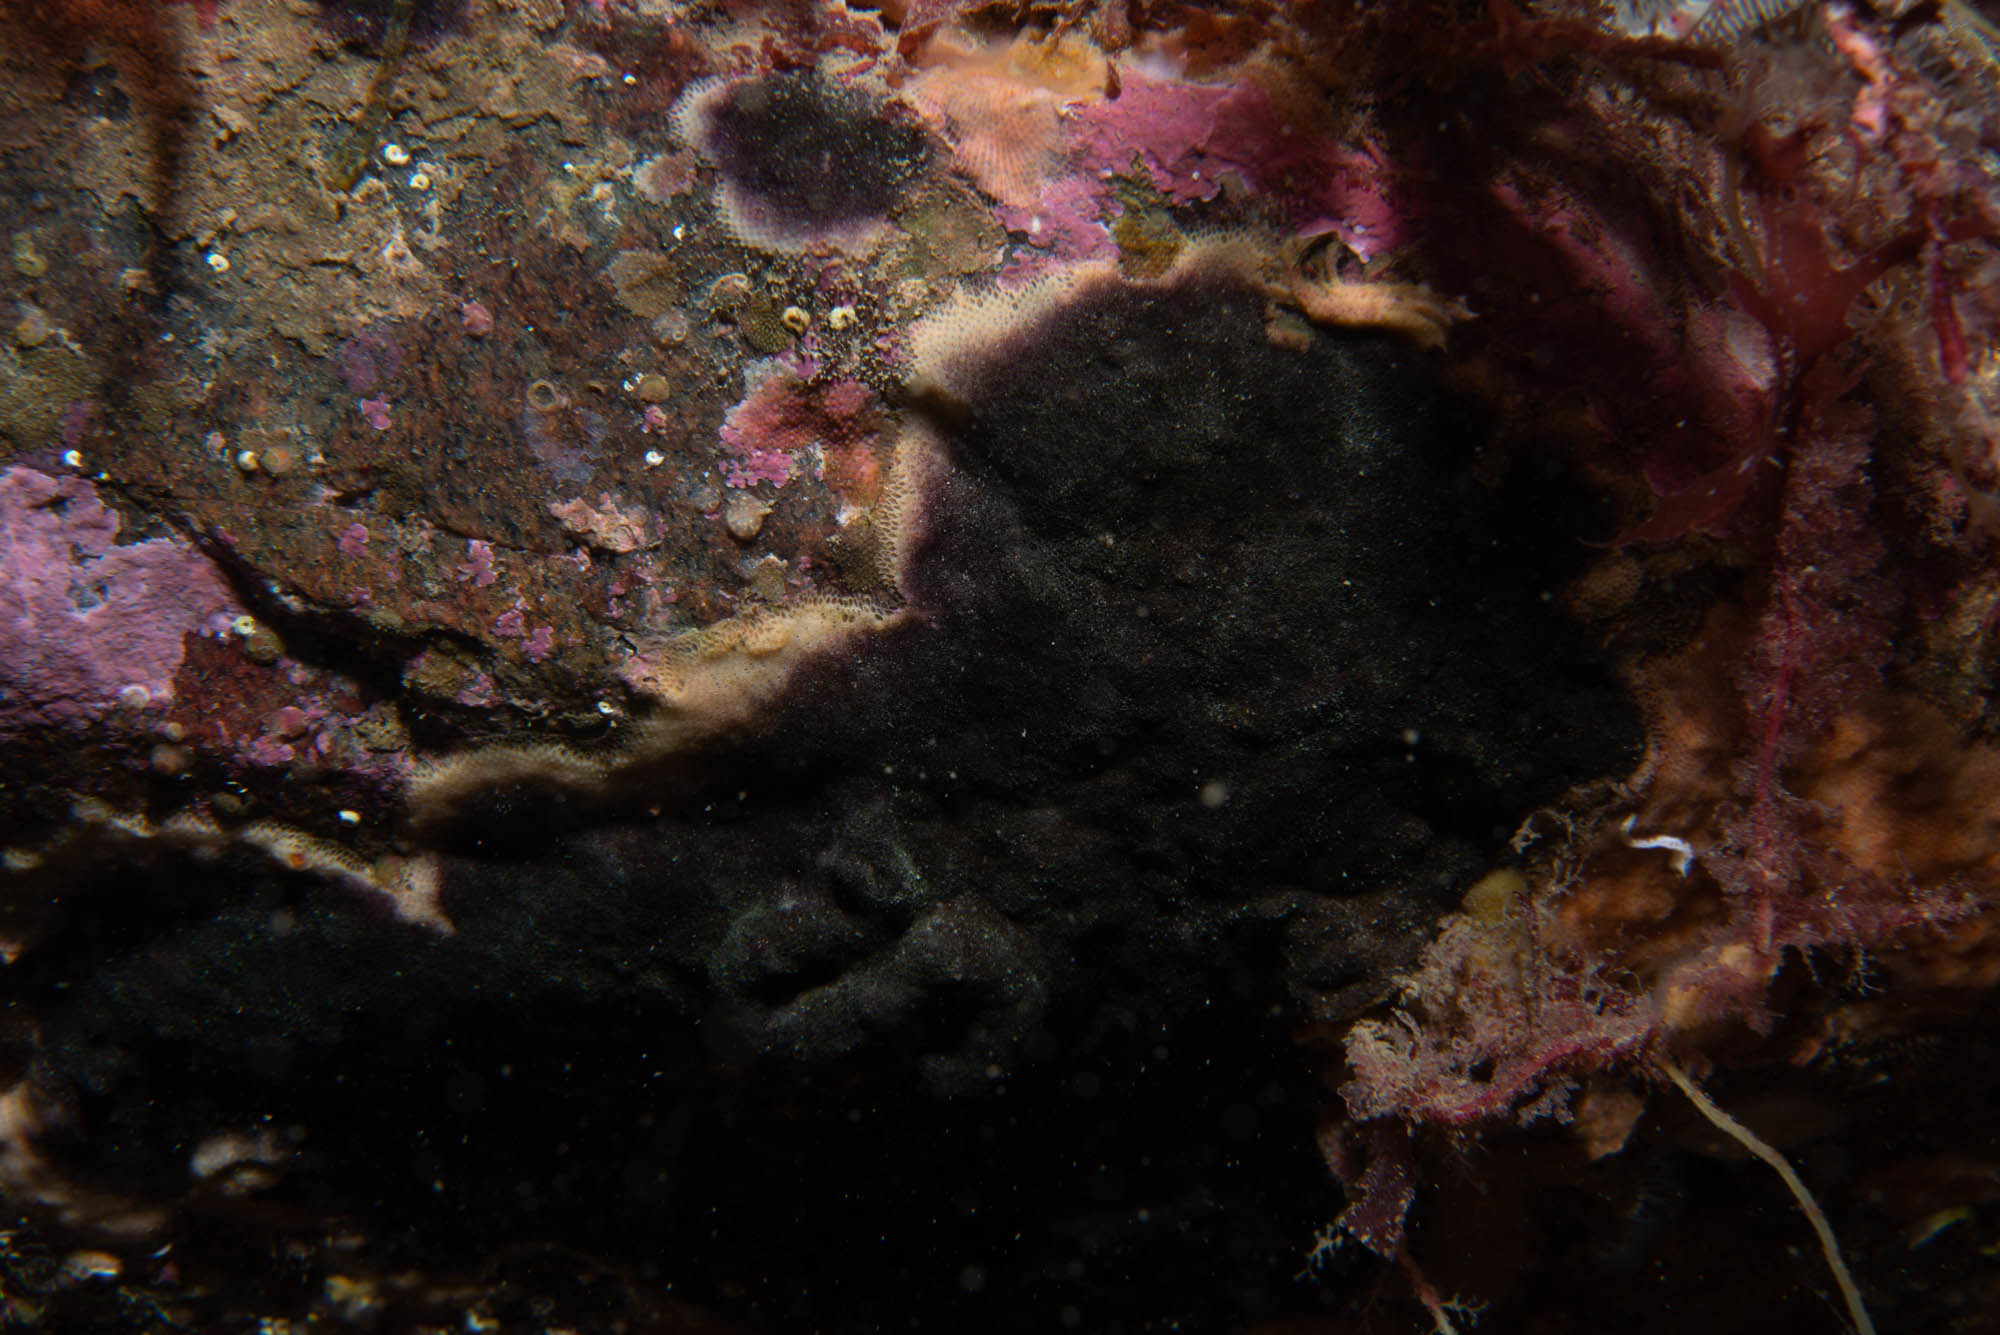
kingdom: Animalia
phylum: Bryozoa
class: Gymnolaemata
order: Cheilostomatida
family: Adeonidae
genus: Reptadeonella
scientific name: Reptadeonella violacea
